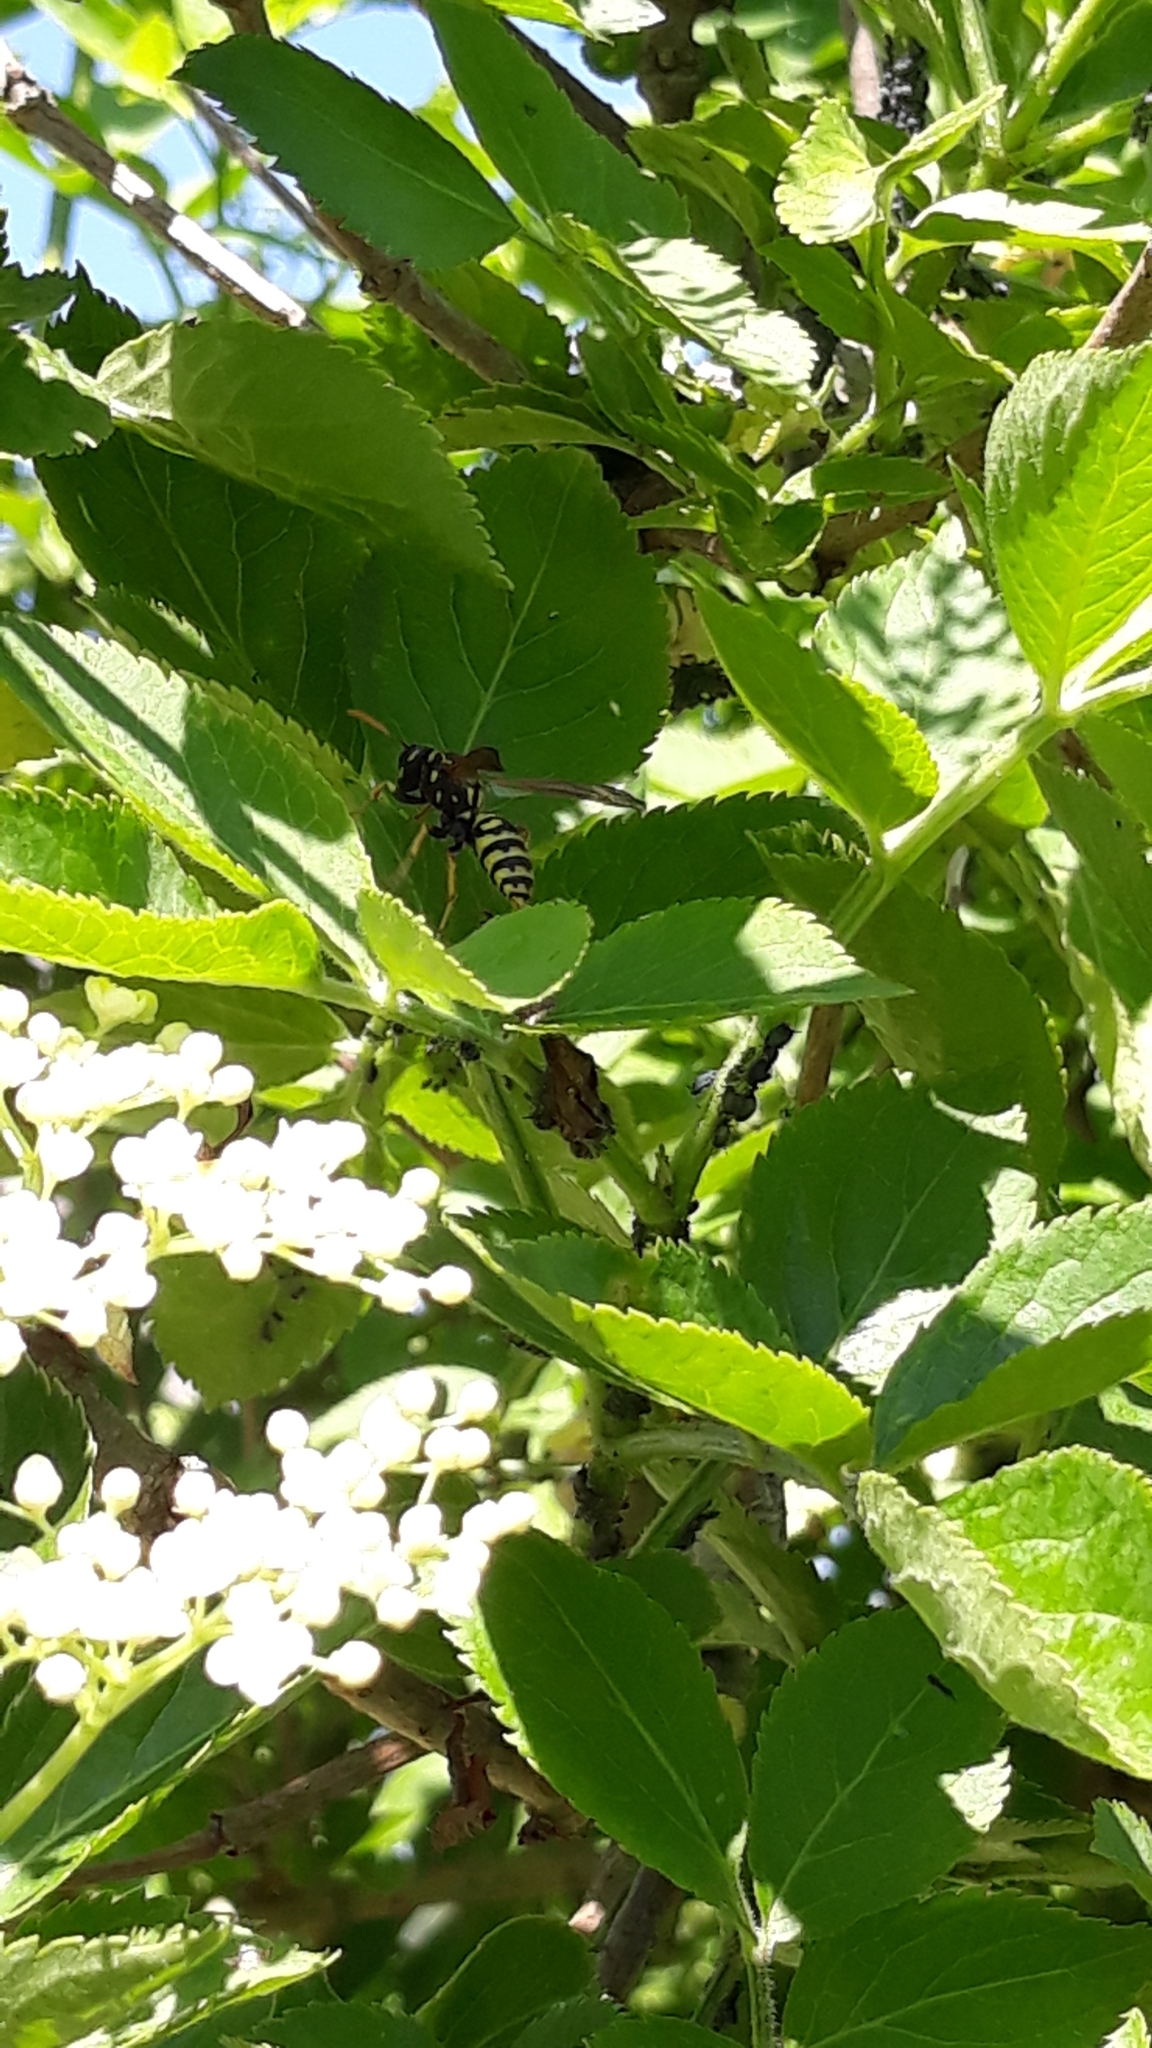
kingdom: Animalia
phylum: Arthropoda
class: Insecta
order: Hymenoptera
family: Eumenidae
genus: Polistes
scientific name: Polistes dominula
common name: Paper wasp
